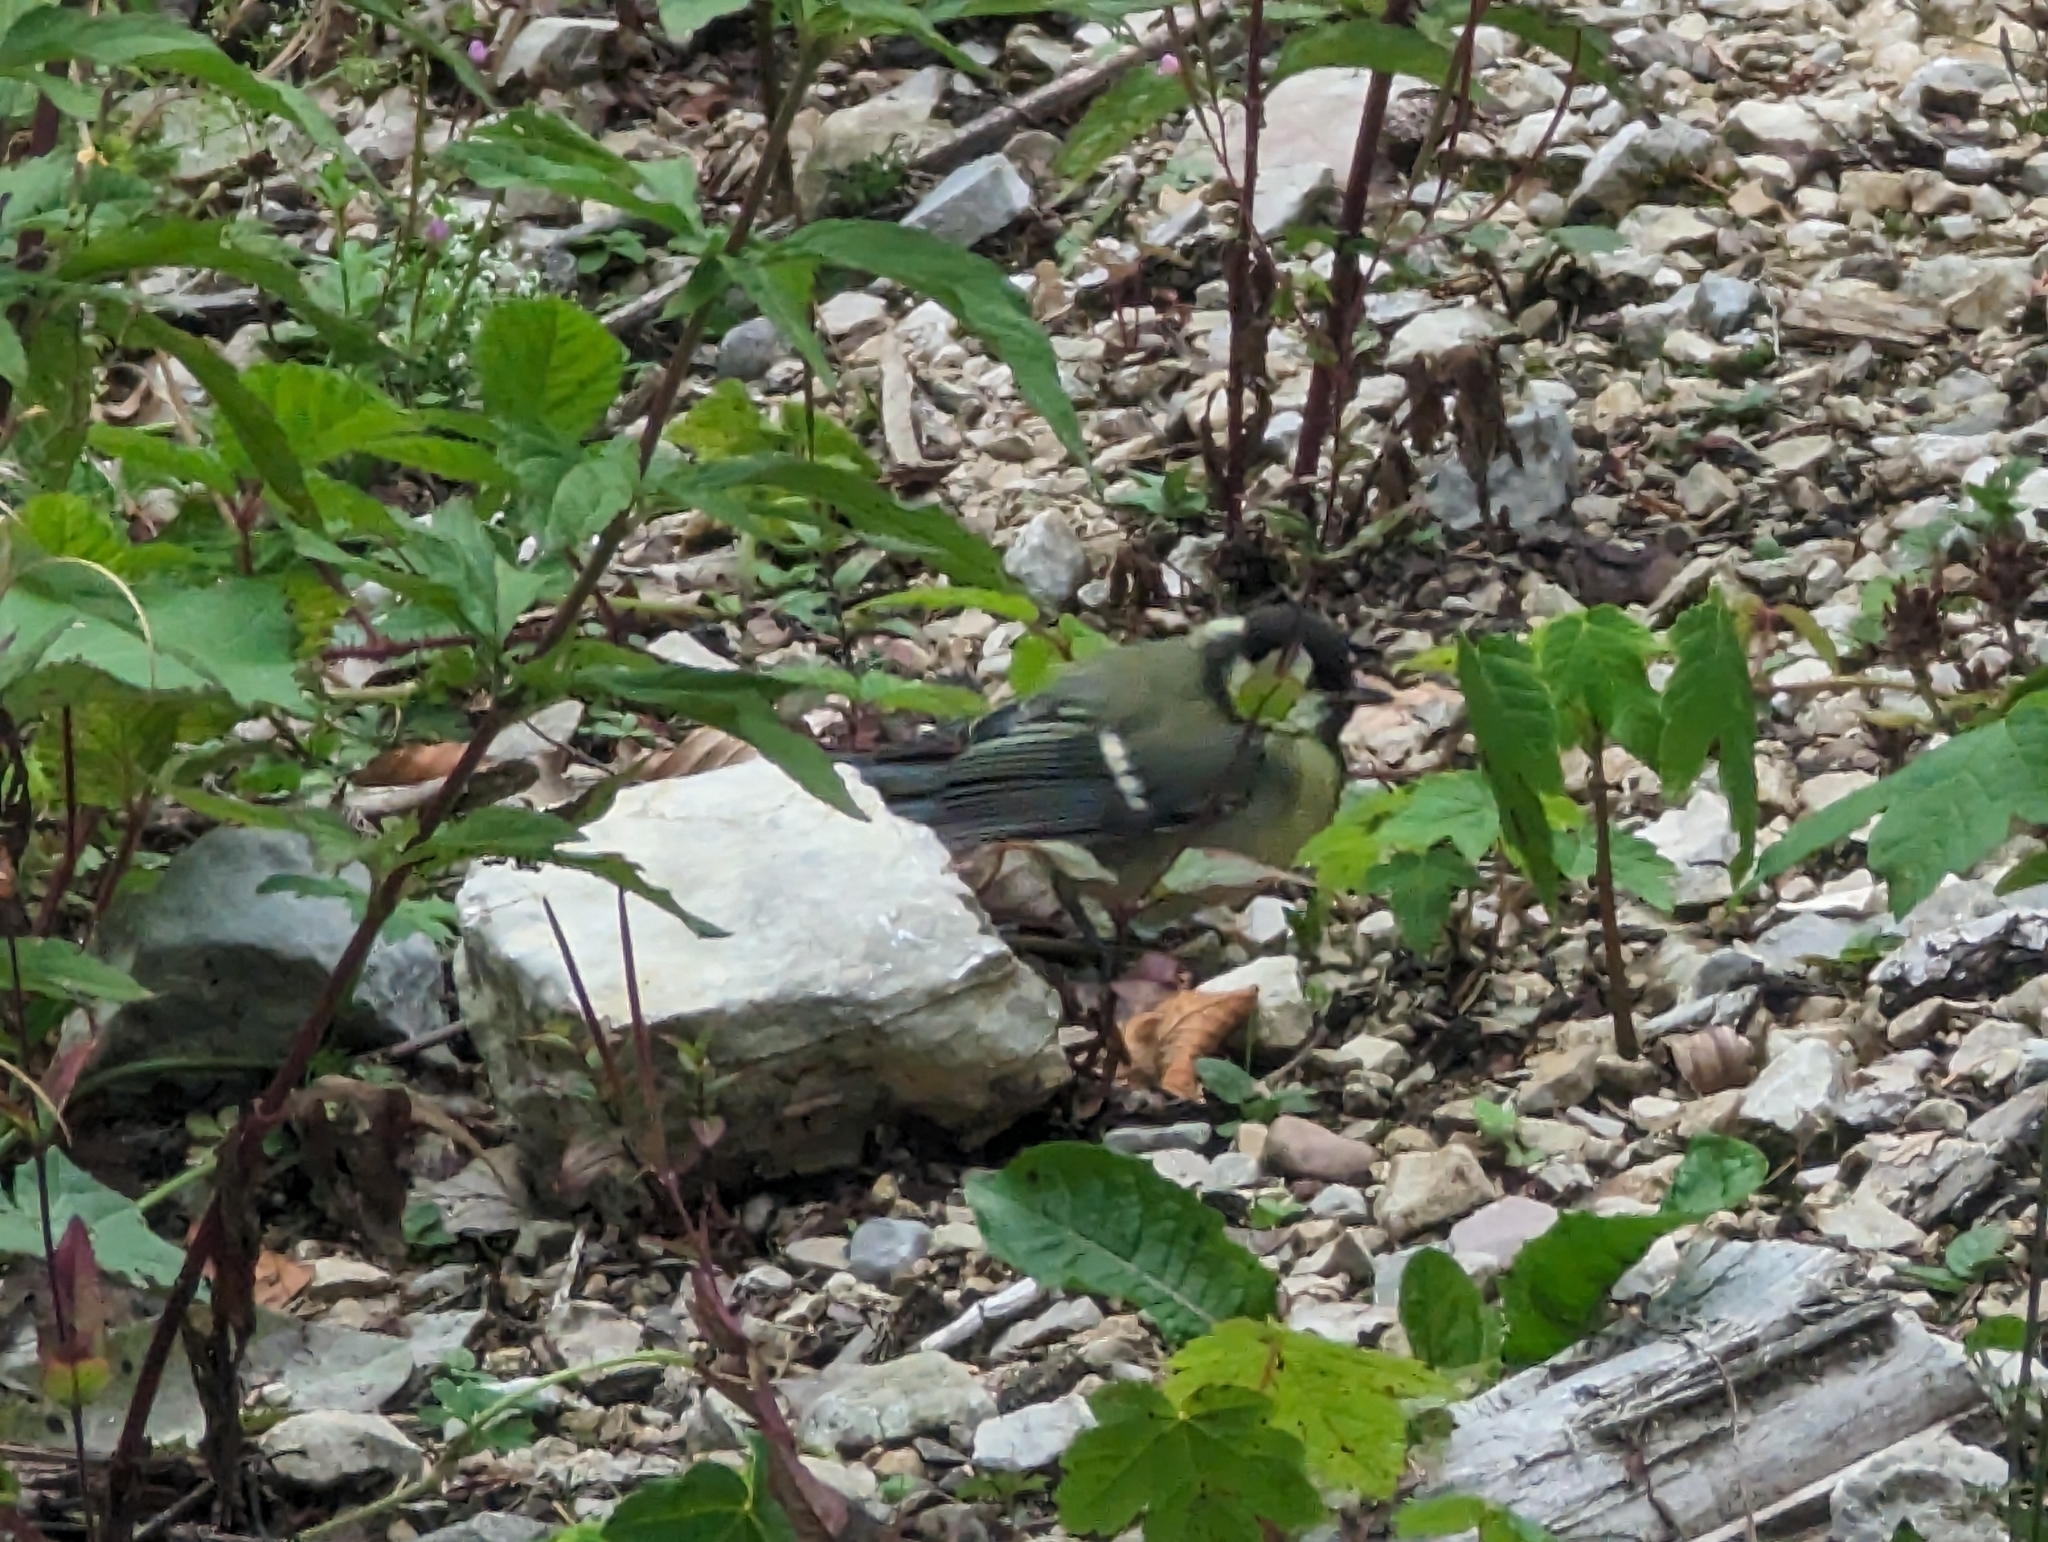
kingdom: Animalia
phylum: Chordata
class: Aves
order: Passeriformes
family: Paridae
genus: Parus
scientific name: Parus major
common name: Great tit
